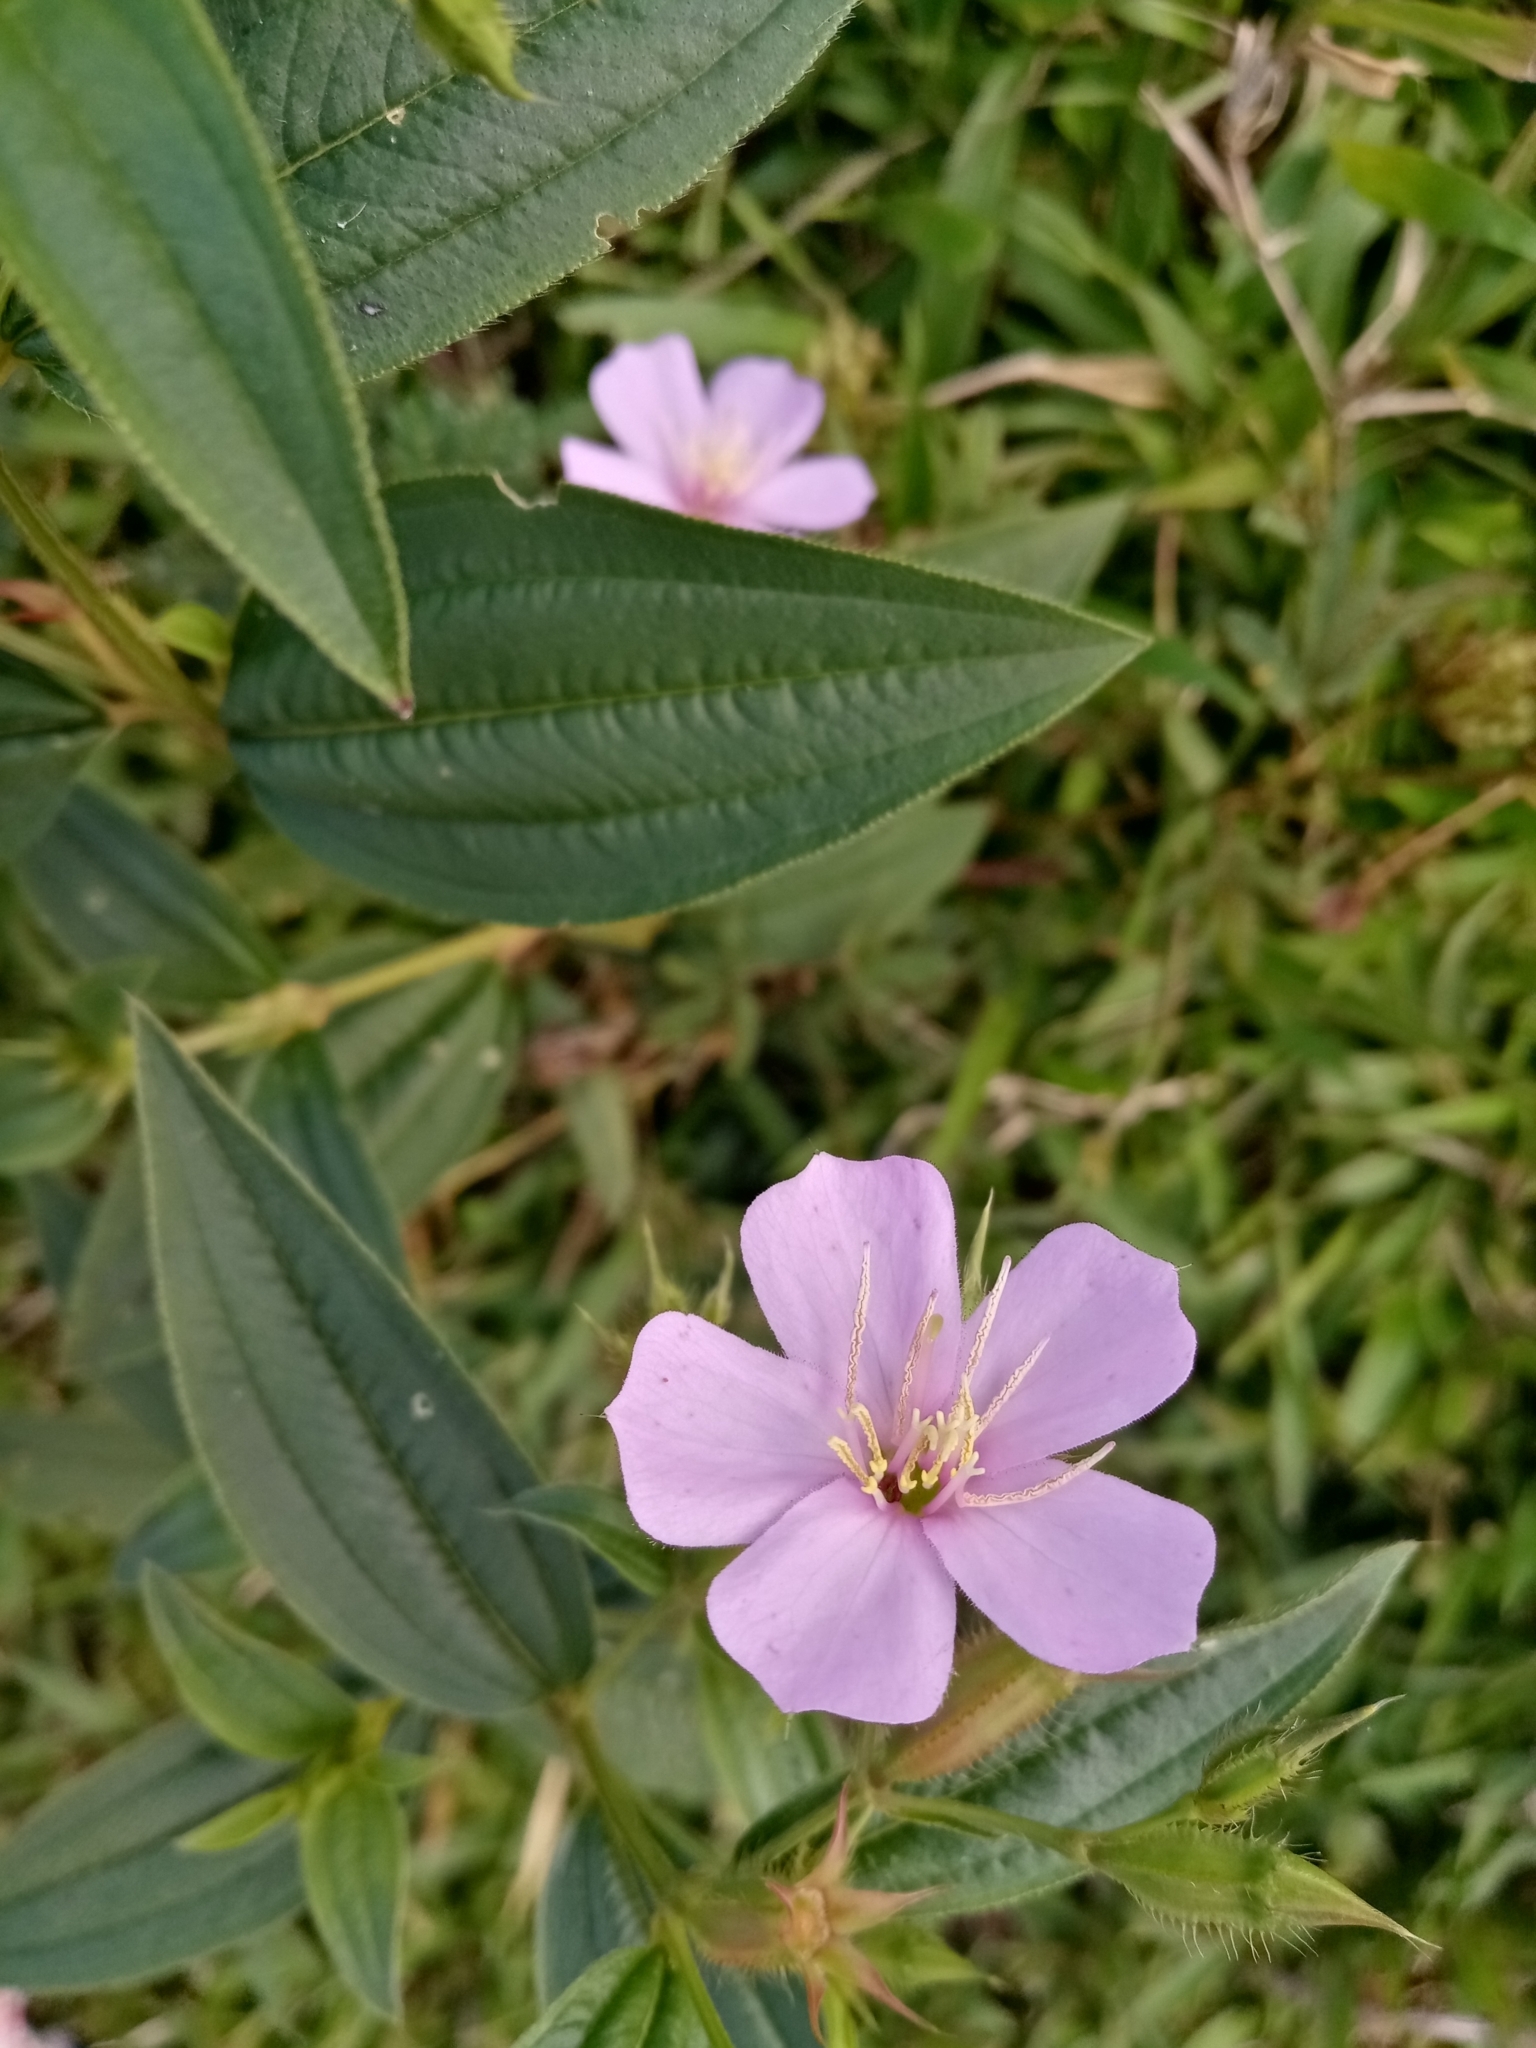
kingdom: Plantae
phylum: Tracheophyta
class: Magnoliopsida
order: Myrtales
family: Melastomataceae
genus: Pterogastra
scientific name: Pterogastra divaricata
